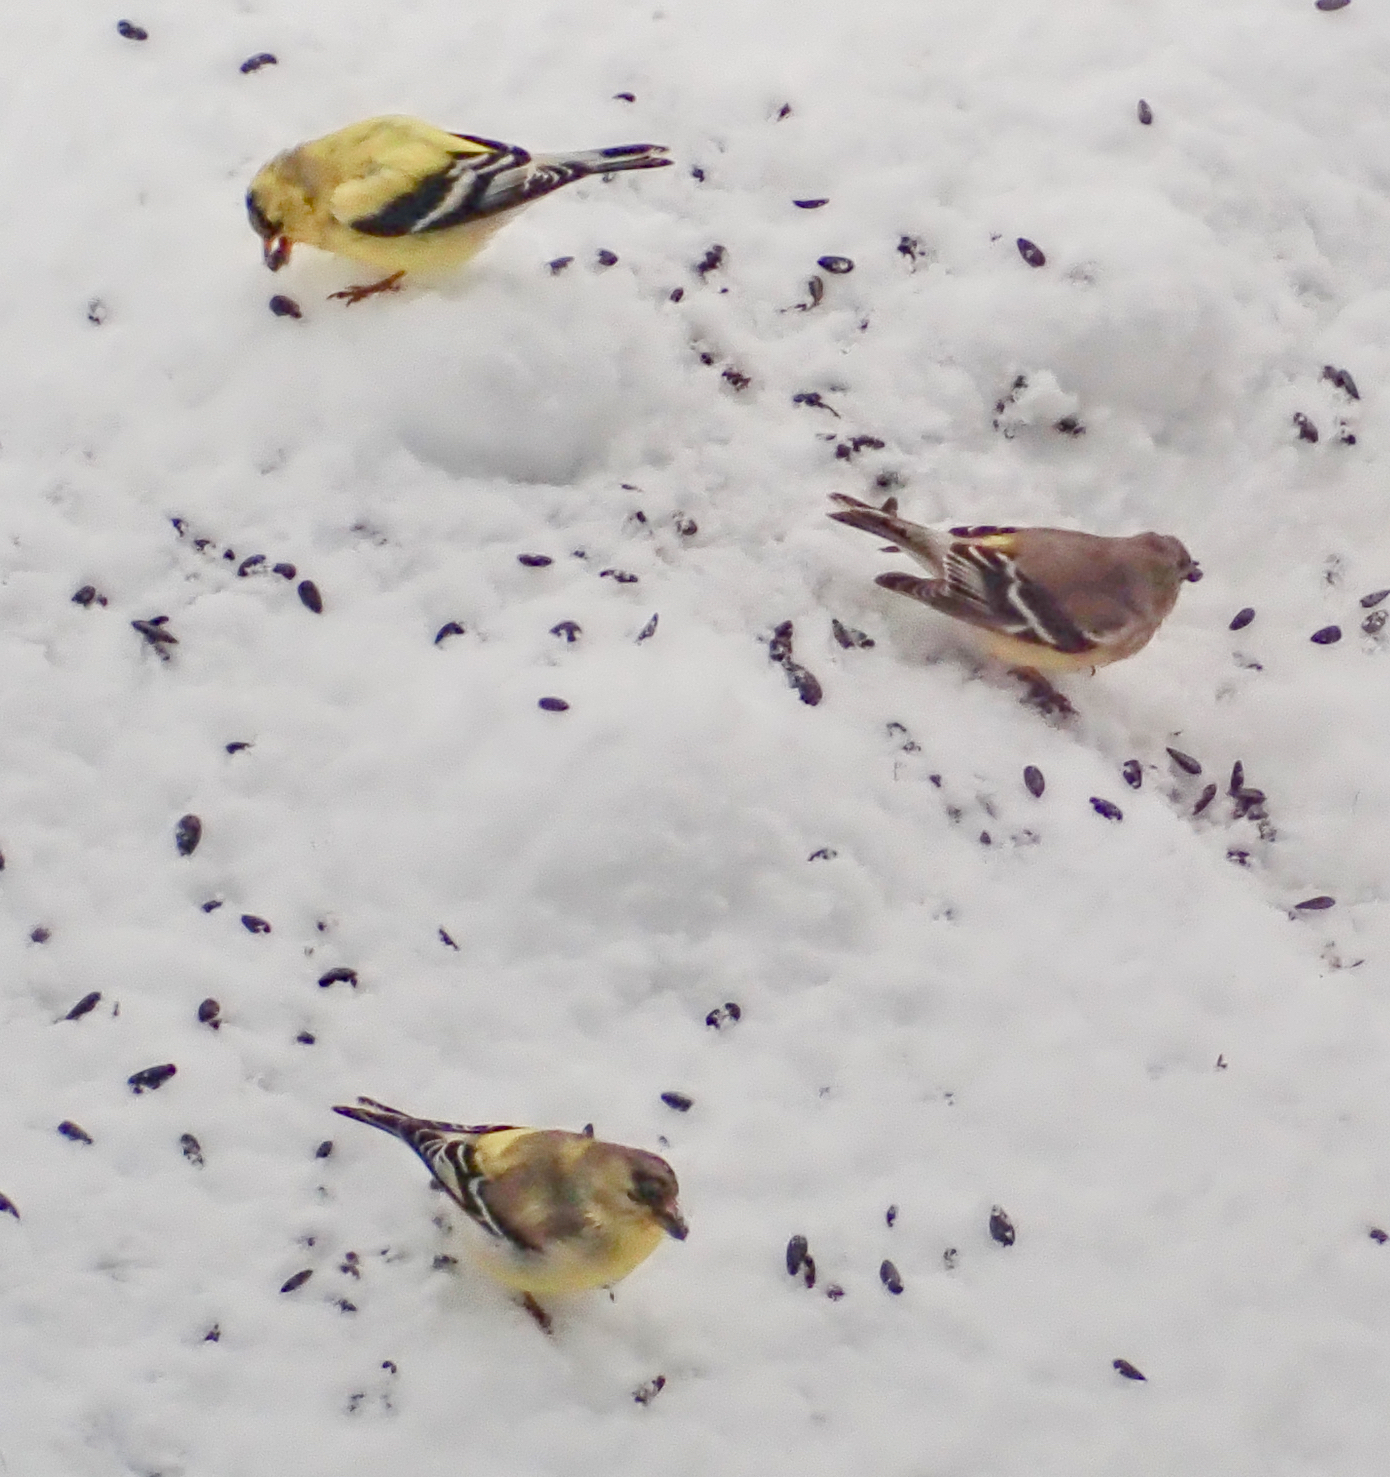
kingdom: Animalia
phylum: Chordata
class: Aves
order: Passeriformes
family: Fringillidae
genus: Spinus
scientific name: Spinus tristis
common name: American goldfinch
